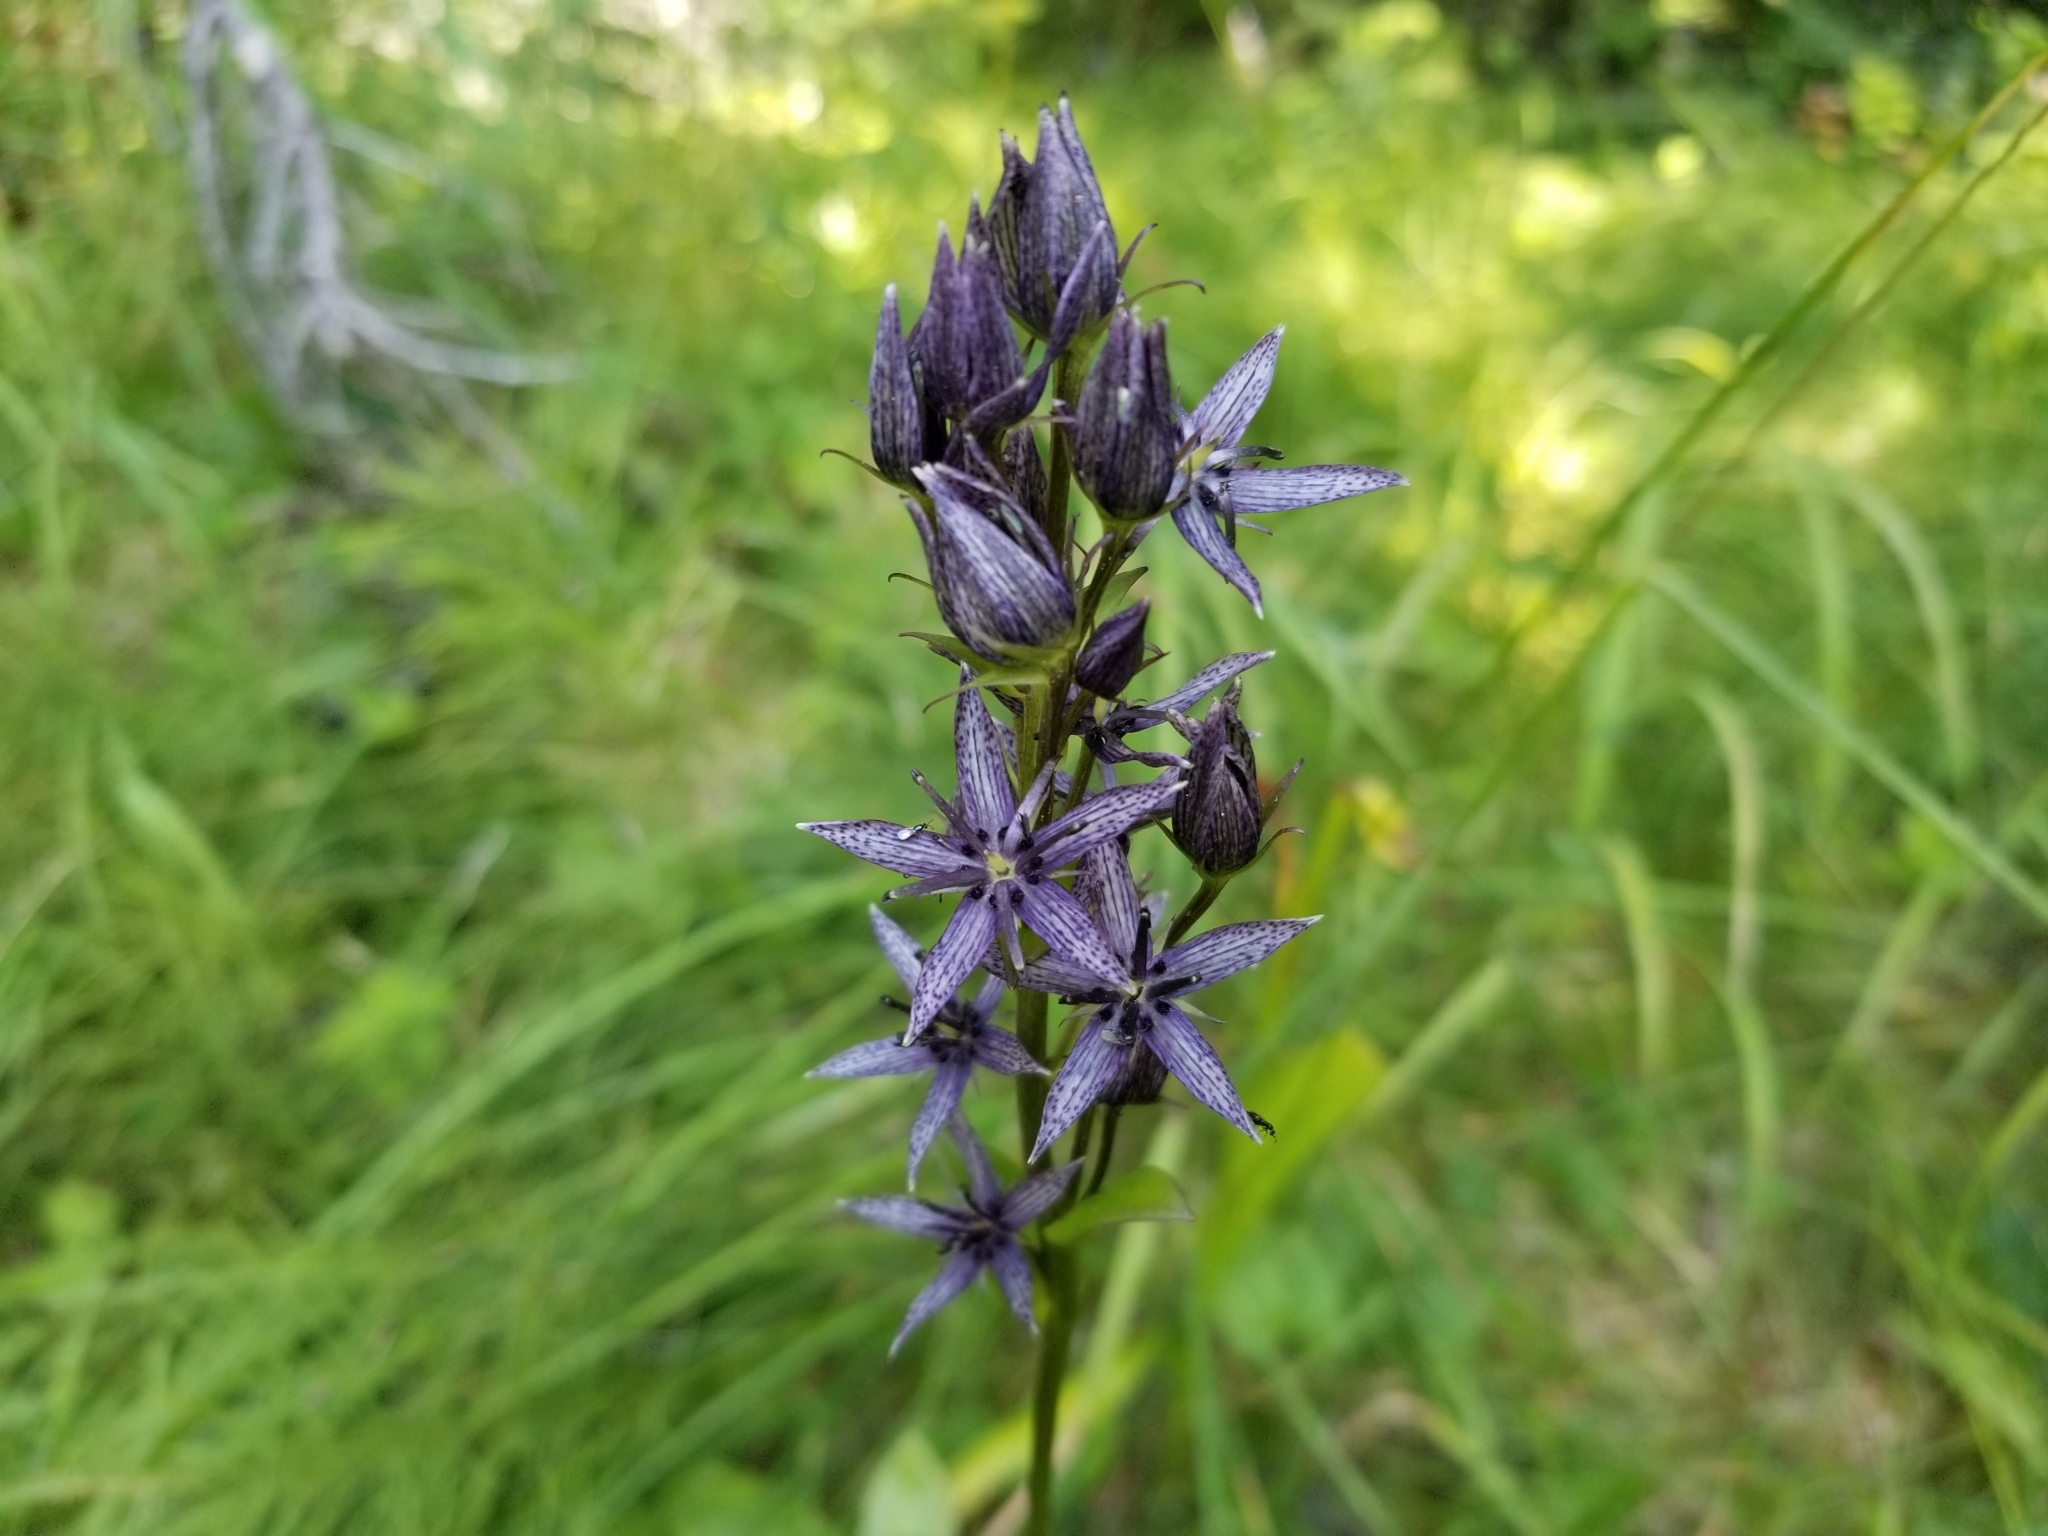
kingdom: Plantae
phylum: Tracheophyta
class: Magnoliopsida
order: Gentianales
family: Gentianaceae
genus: Swertia
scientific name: Swertia perennis
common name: Alpine bog swertia
